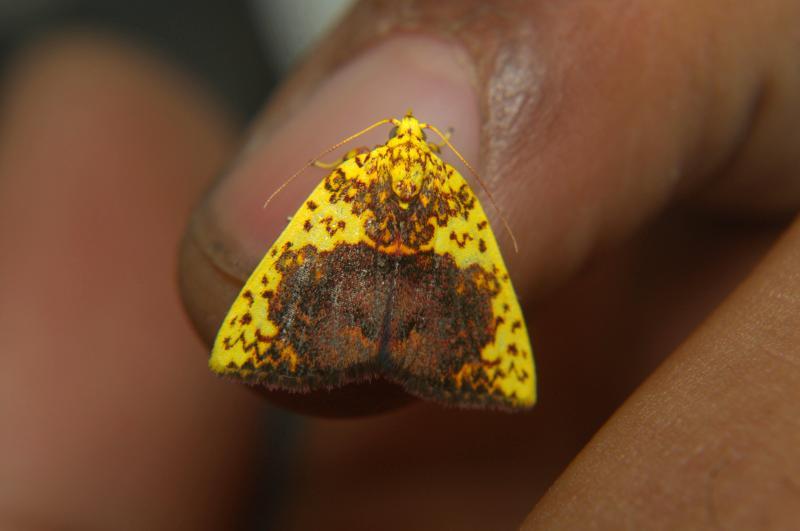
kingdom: Animalia
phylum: Arthropoda
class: Insecta
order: Lepidoptera
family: Nolidae
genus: Siglophora
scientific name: Siglophora sanguinolenta
